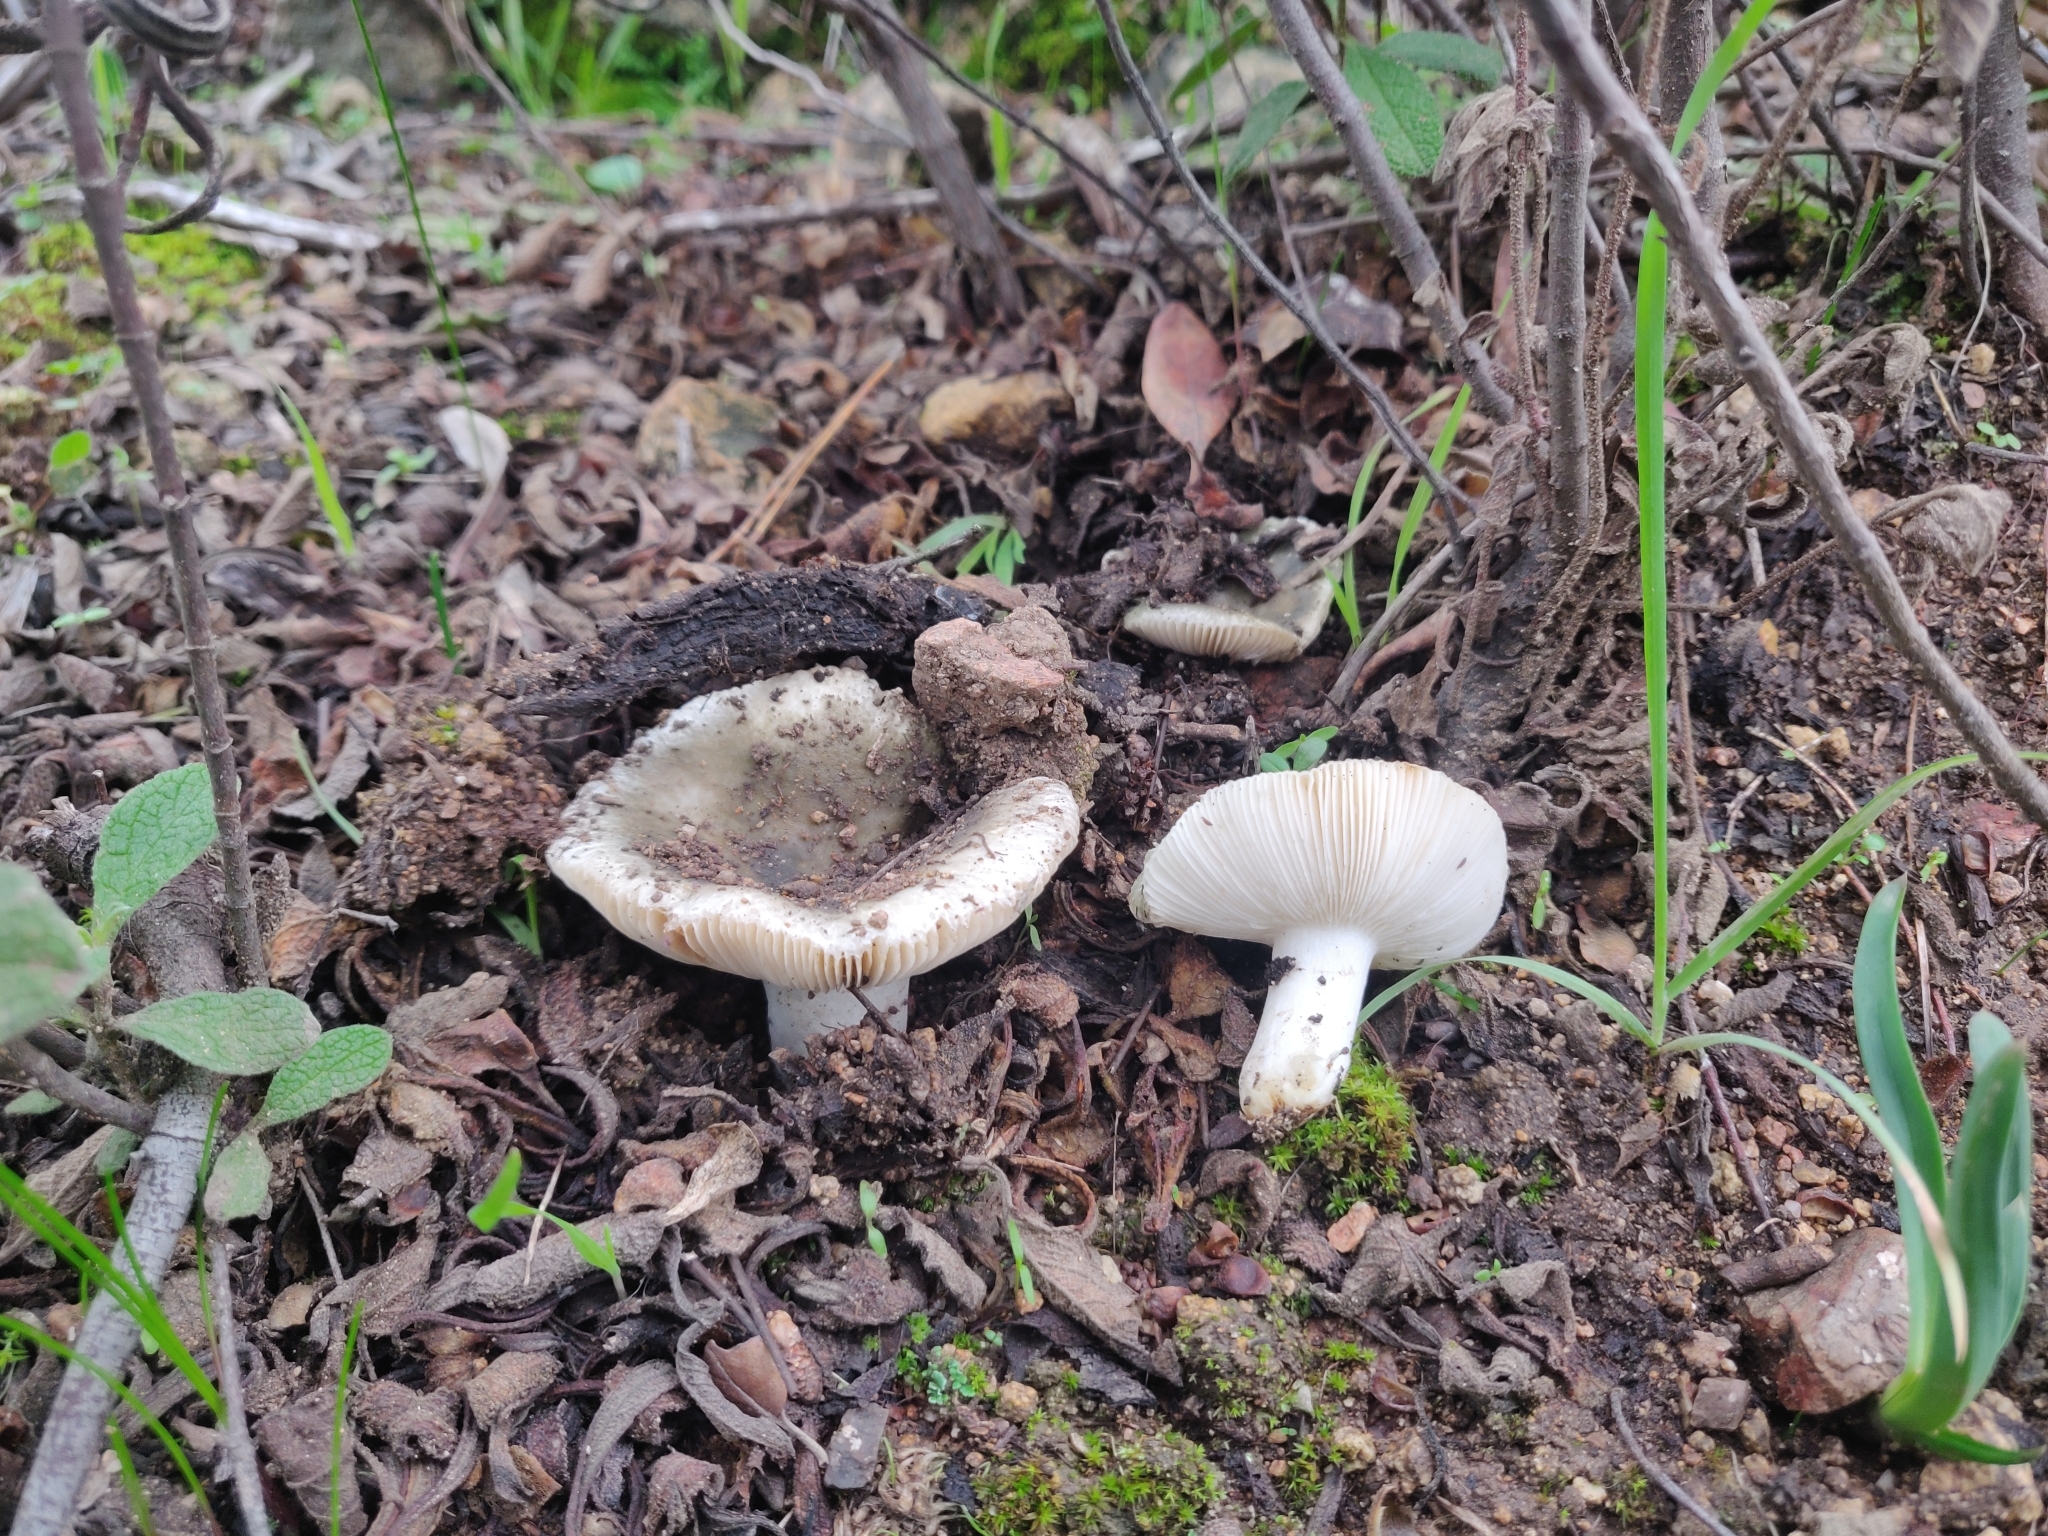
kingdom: Fungi
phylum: Basidiomycota
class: Agaricomycetes
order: Russulales
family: Russulaceae
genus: Russula
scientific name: Russula monspeliensis
